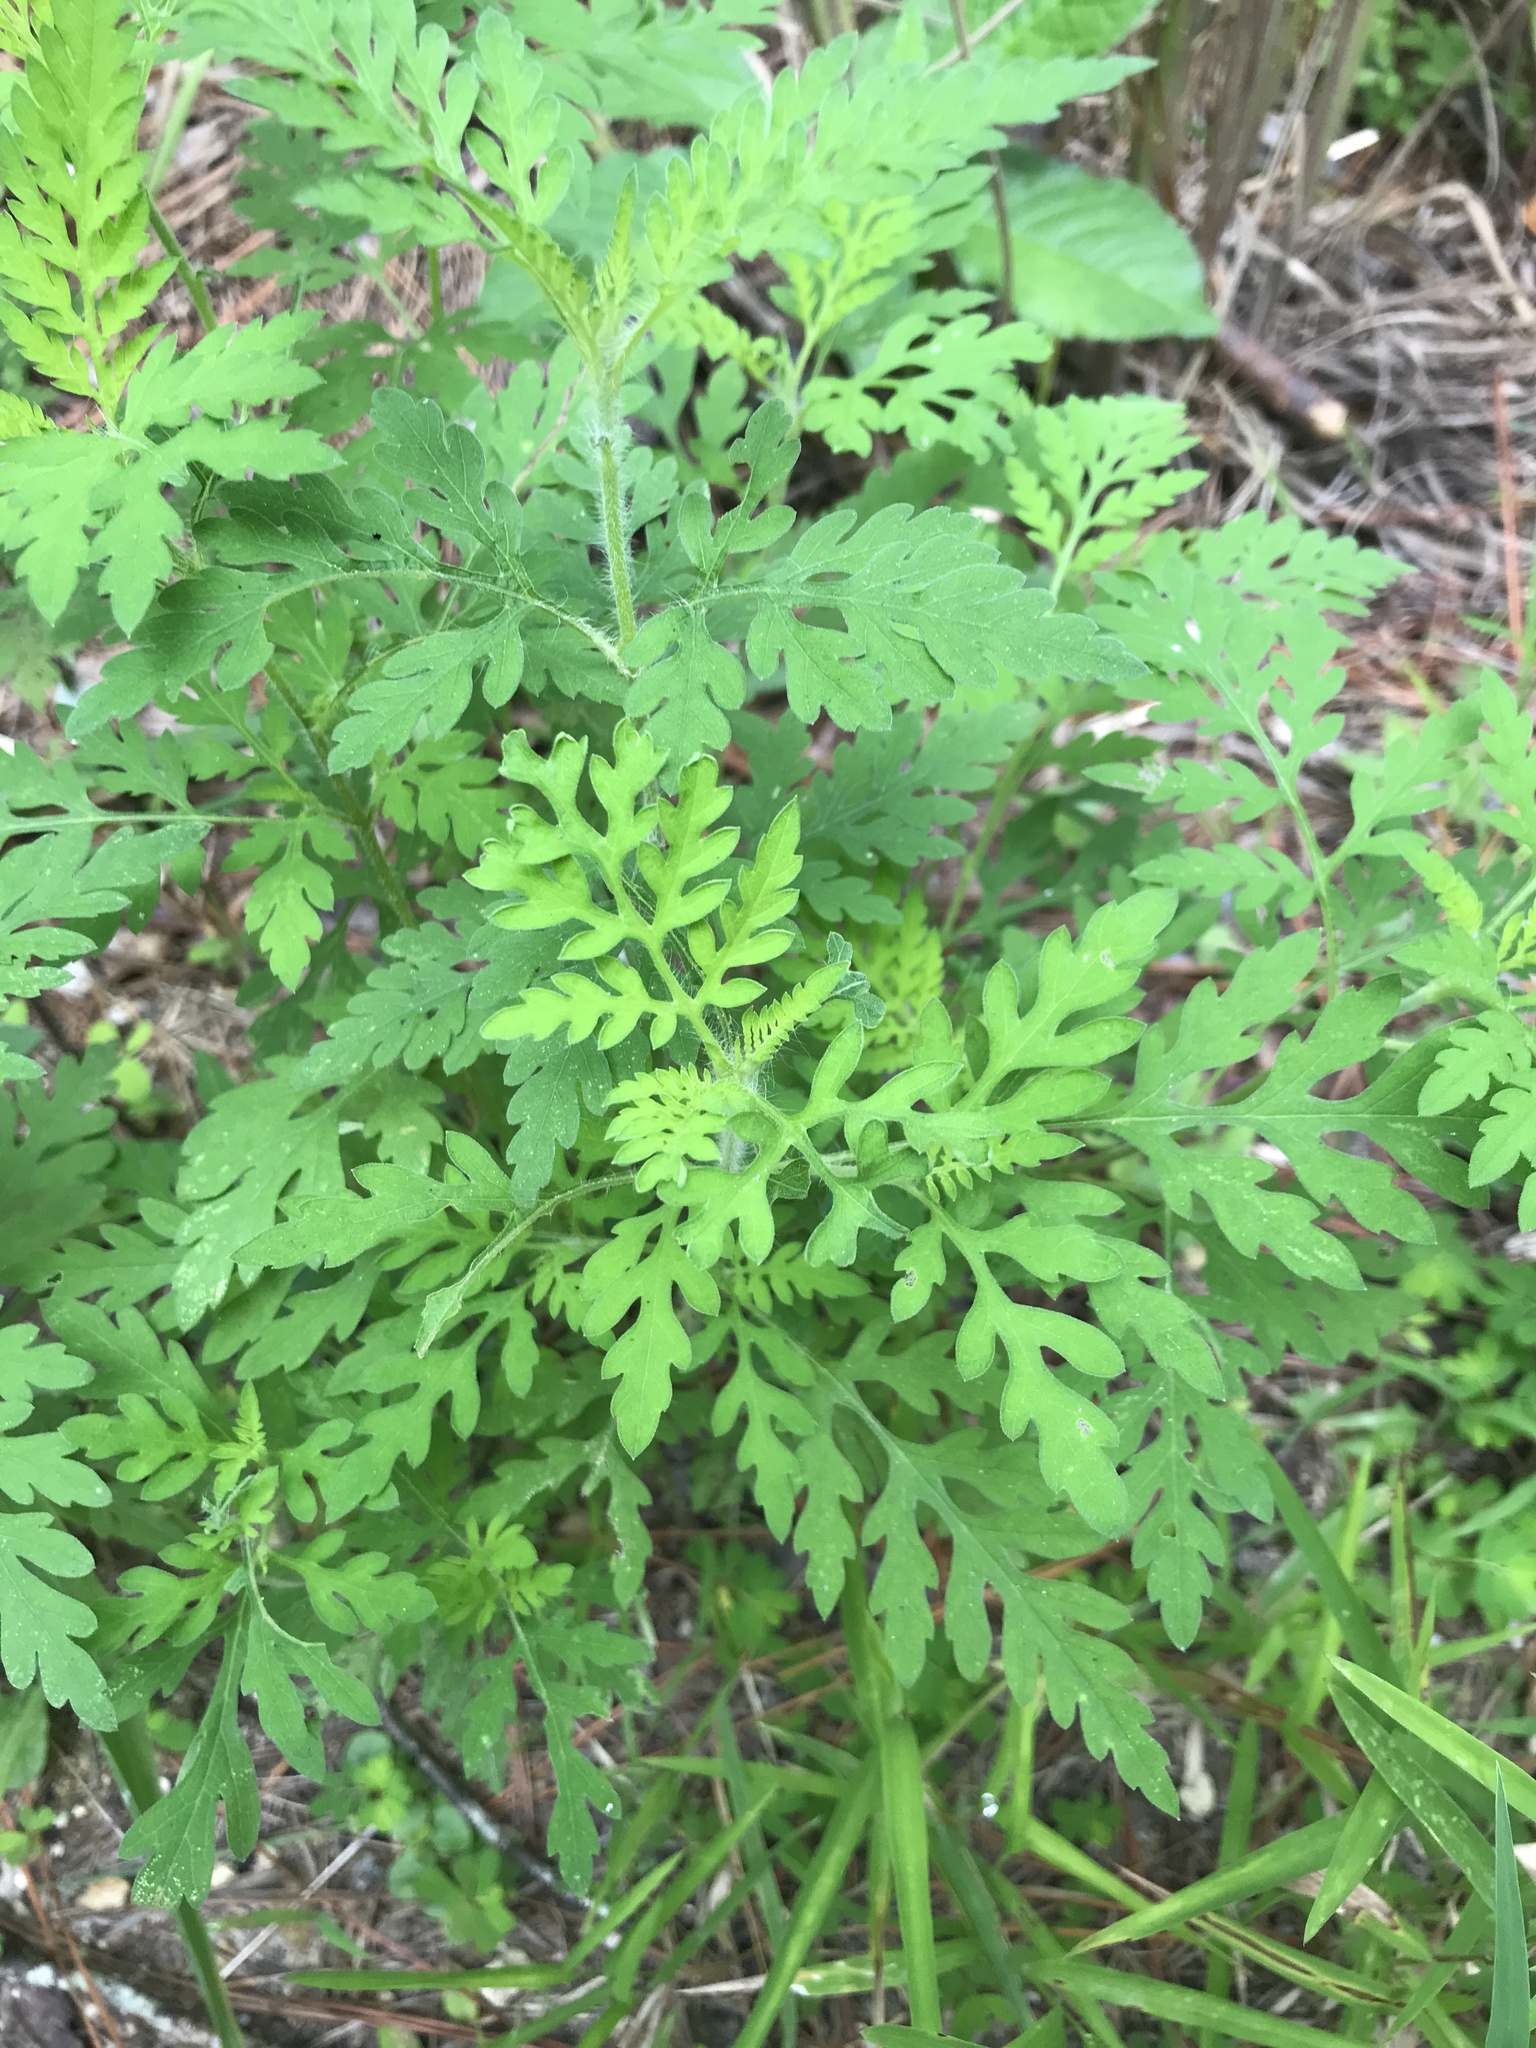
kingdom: Plantae
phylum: Tracheophyta
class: Magnoliopsida
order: Asterales
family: Asteraceae
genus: Ambrosia
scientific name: Ambrosia artemisiifolia
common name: Annual ragweed
